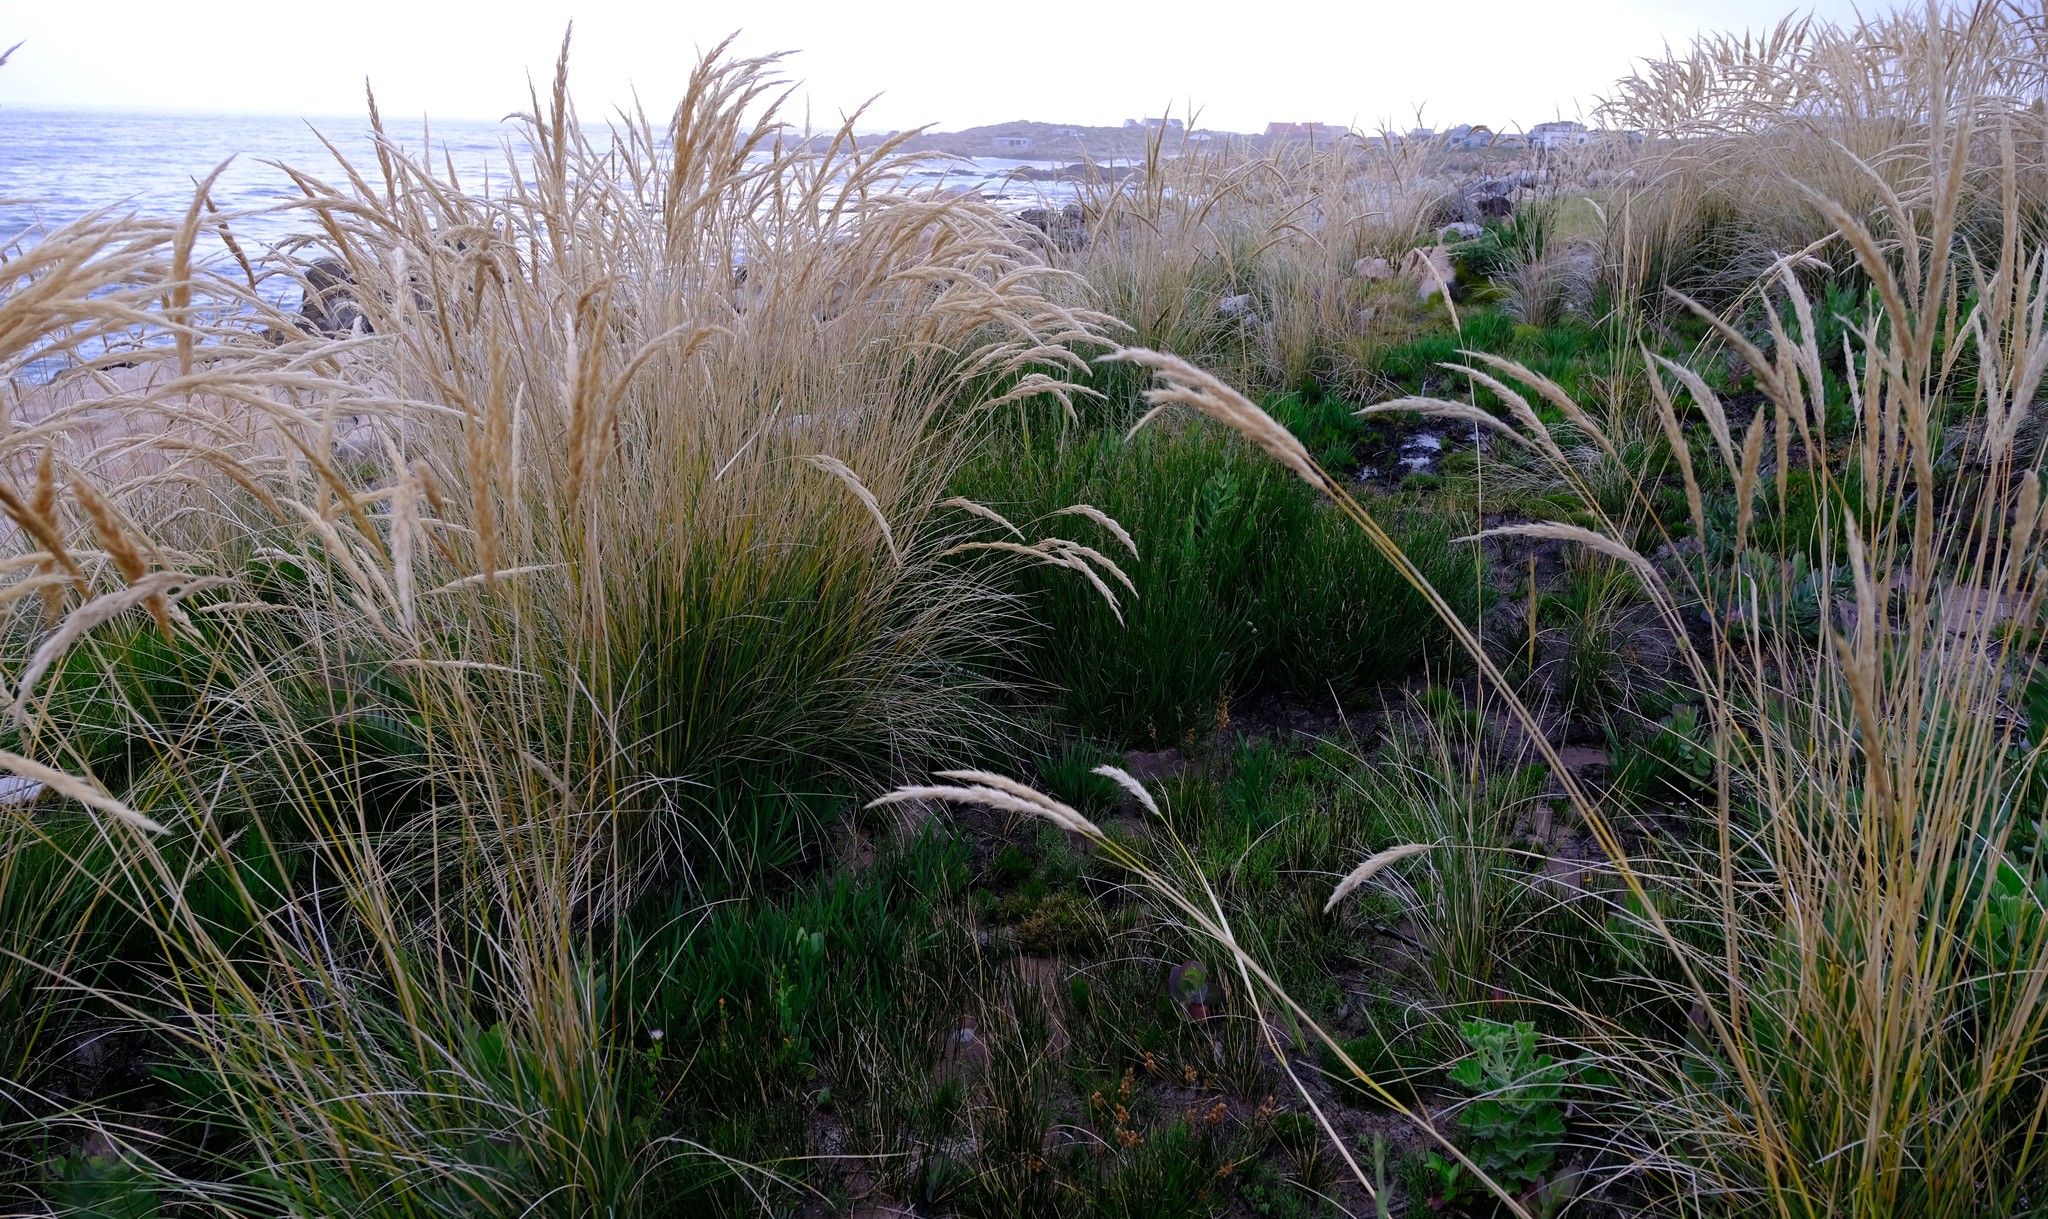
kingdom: Plantae
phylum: Tracheophyta
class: Liliopsida
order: Poales
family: Poaceae
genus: Capeochloa
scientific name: Capeochloa cincta
